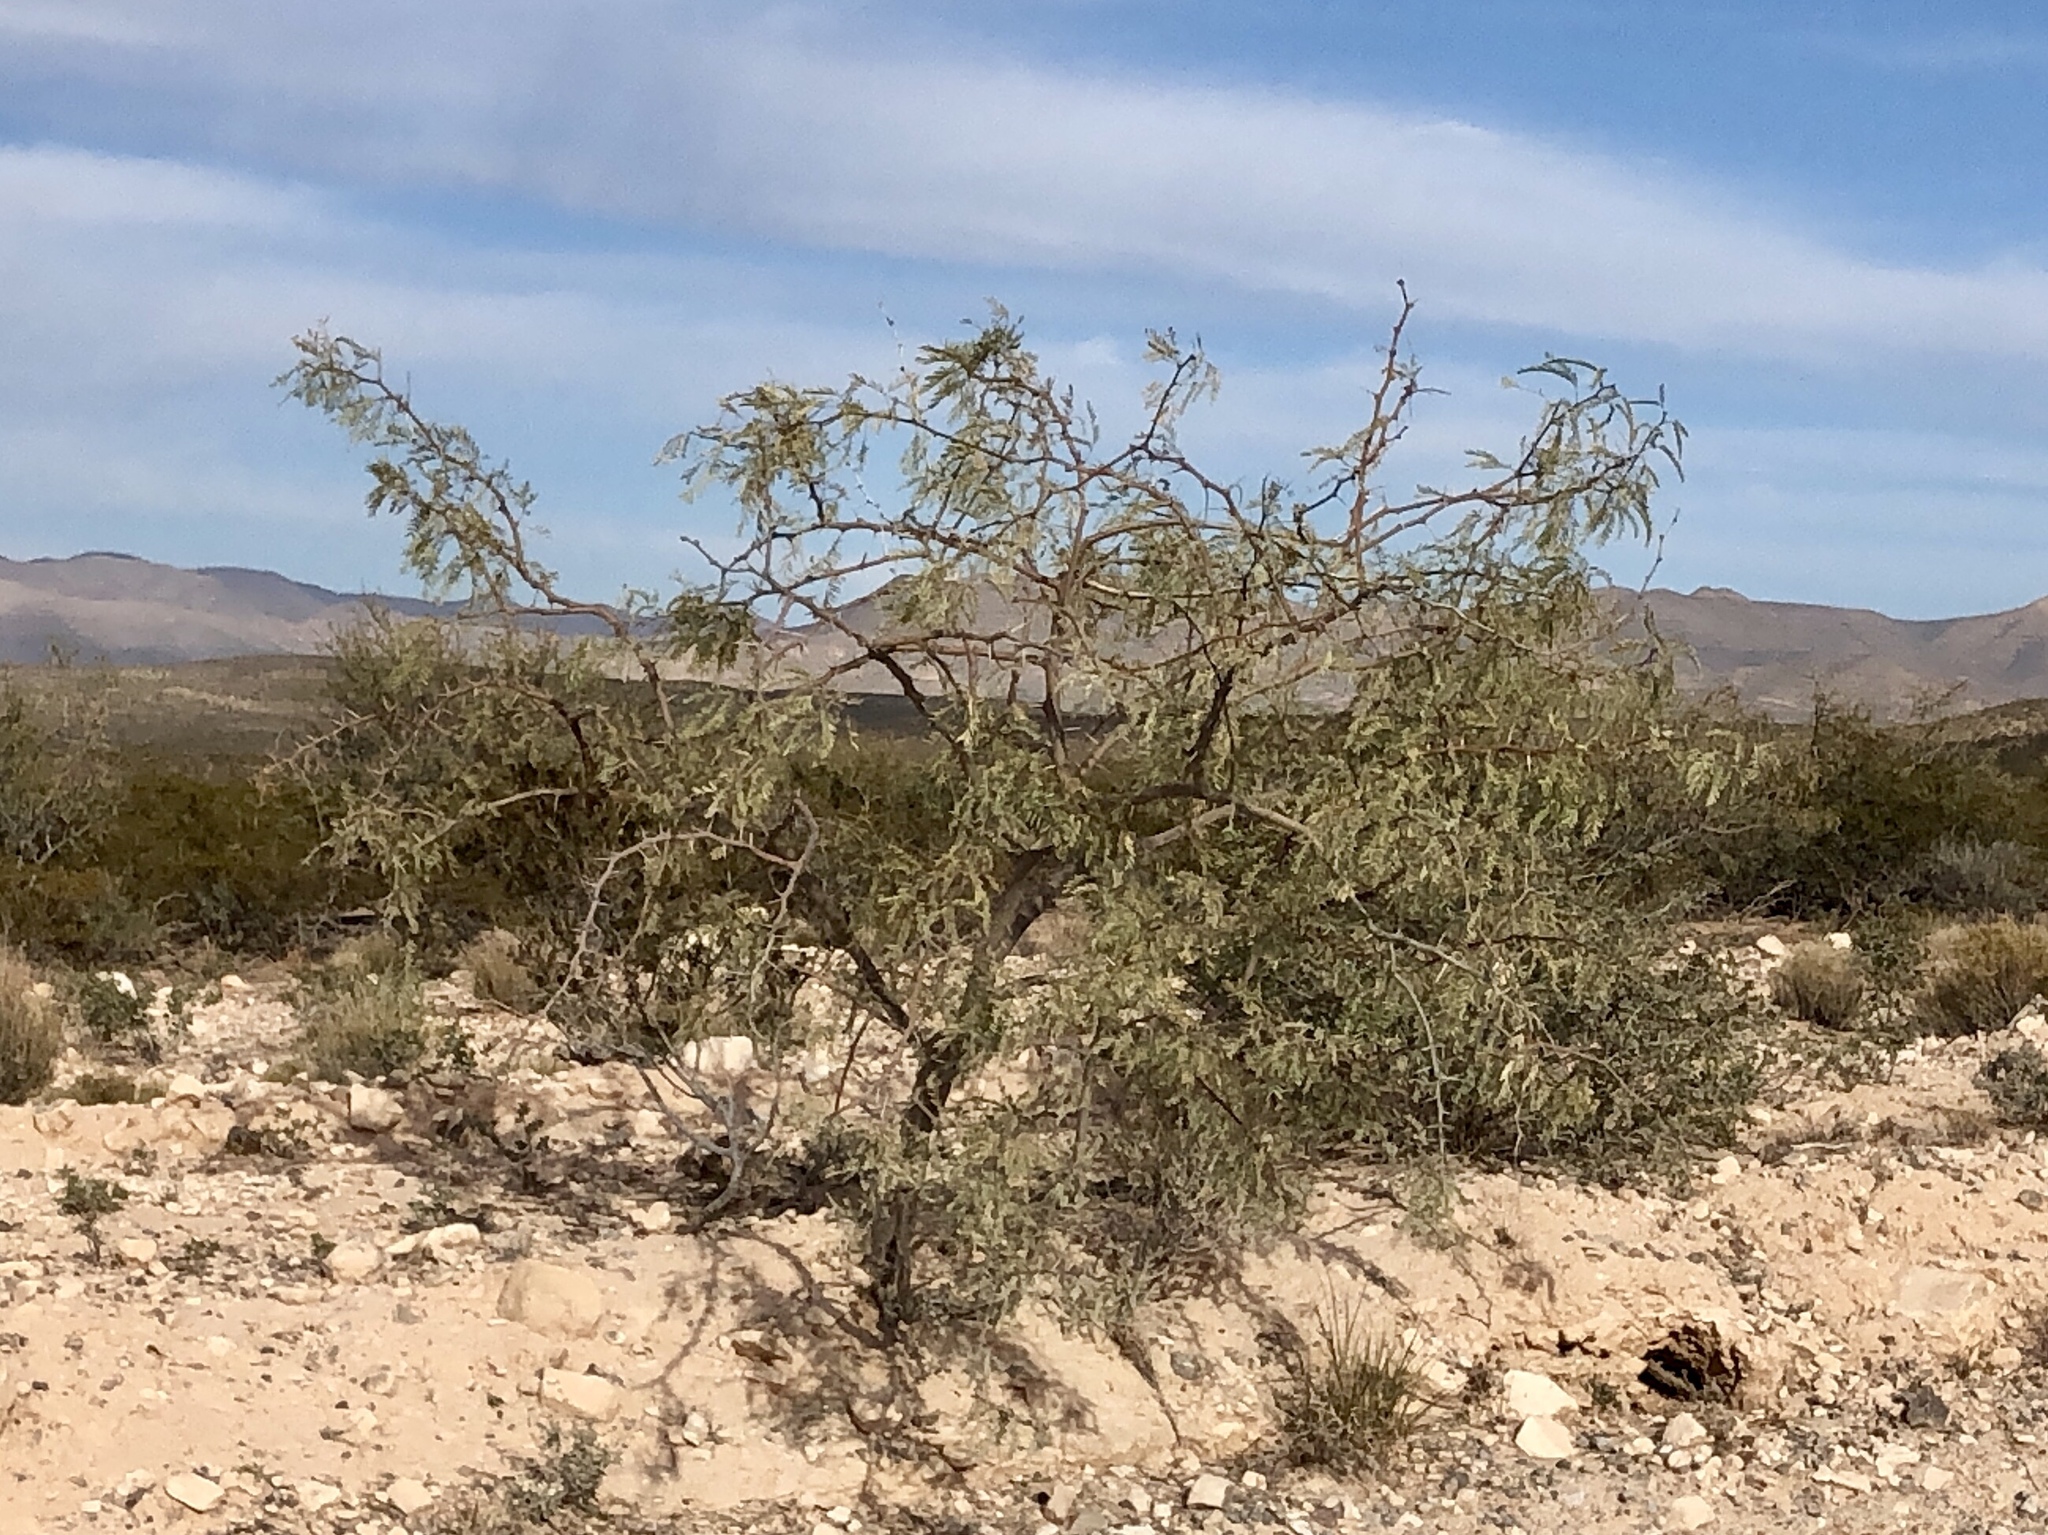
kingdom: Plantae
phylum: Tracheophyta
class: Magnoliopsida
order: Fabales
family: Fabaceae
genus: Prosopis
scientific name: Prosopis glandulosa
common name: Honey mesquite
